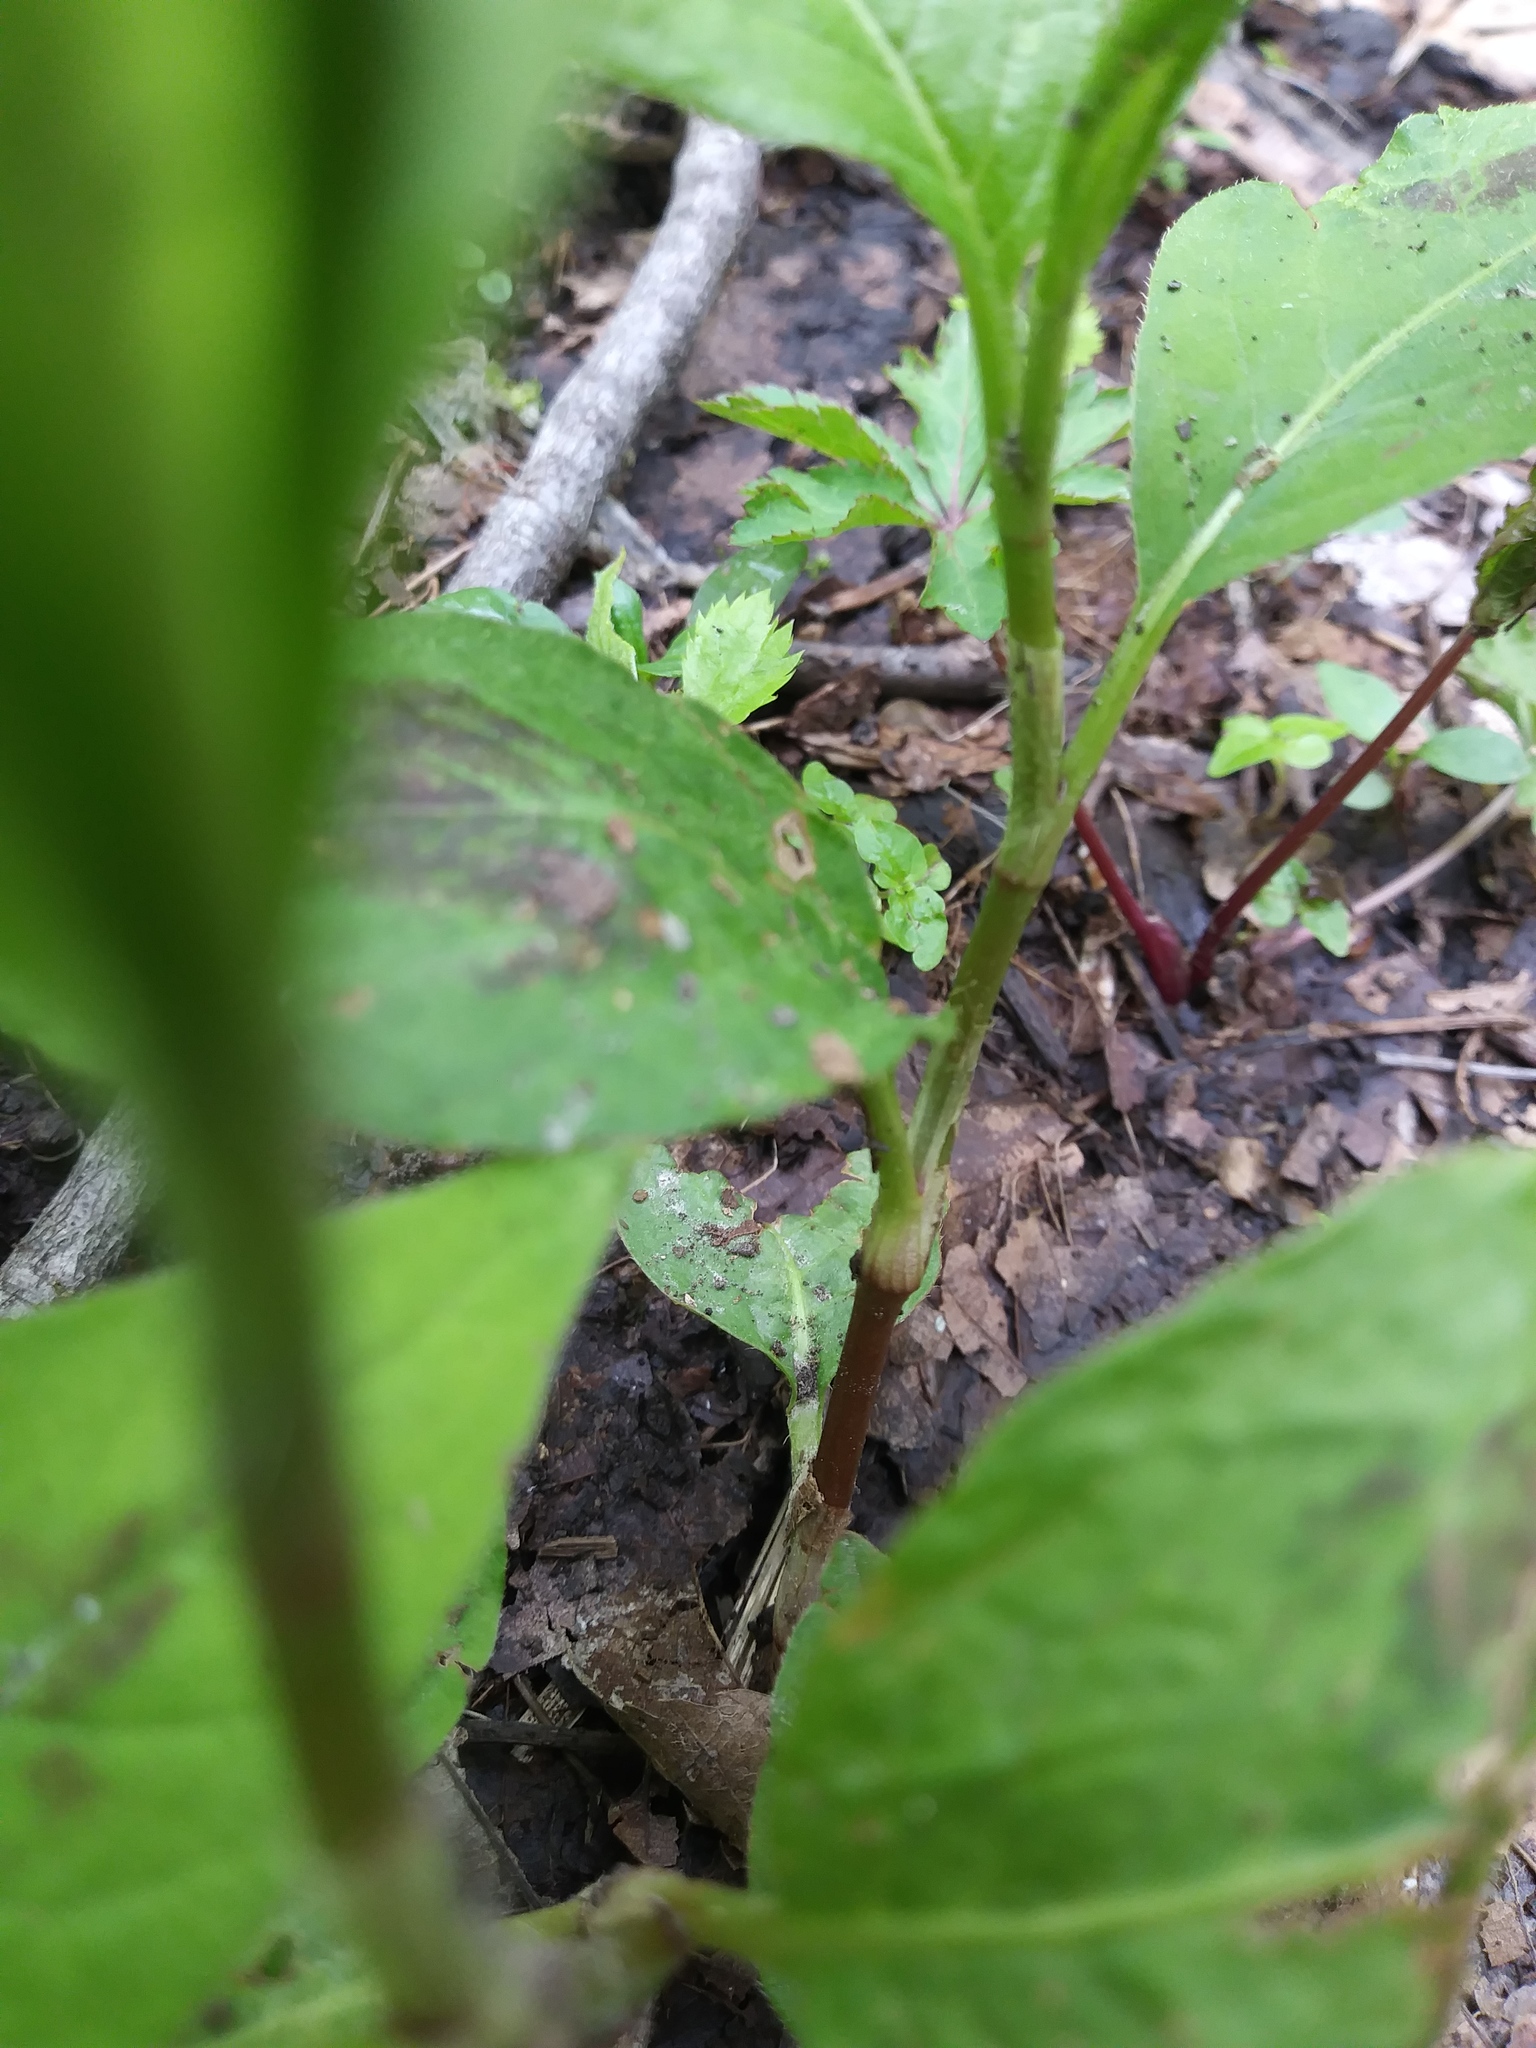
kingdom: Plantae
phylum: Tracheophyta
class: Magnoliopsida
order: Caryophyllales
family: Polygonaceae
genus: Persicaria
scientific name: Persicaria virginiana
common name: Jumpseed
